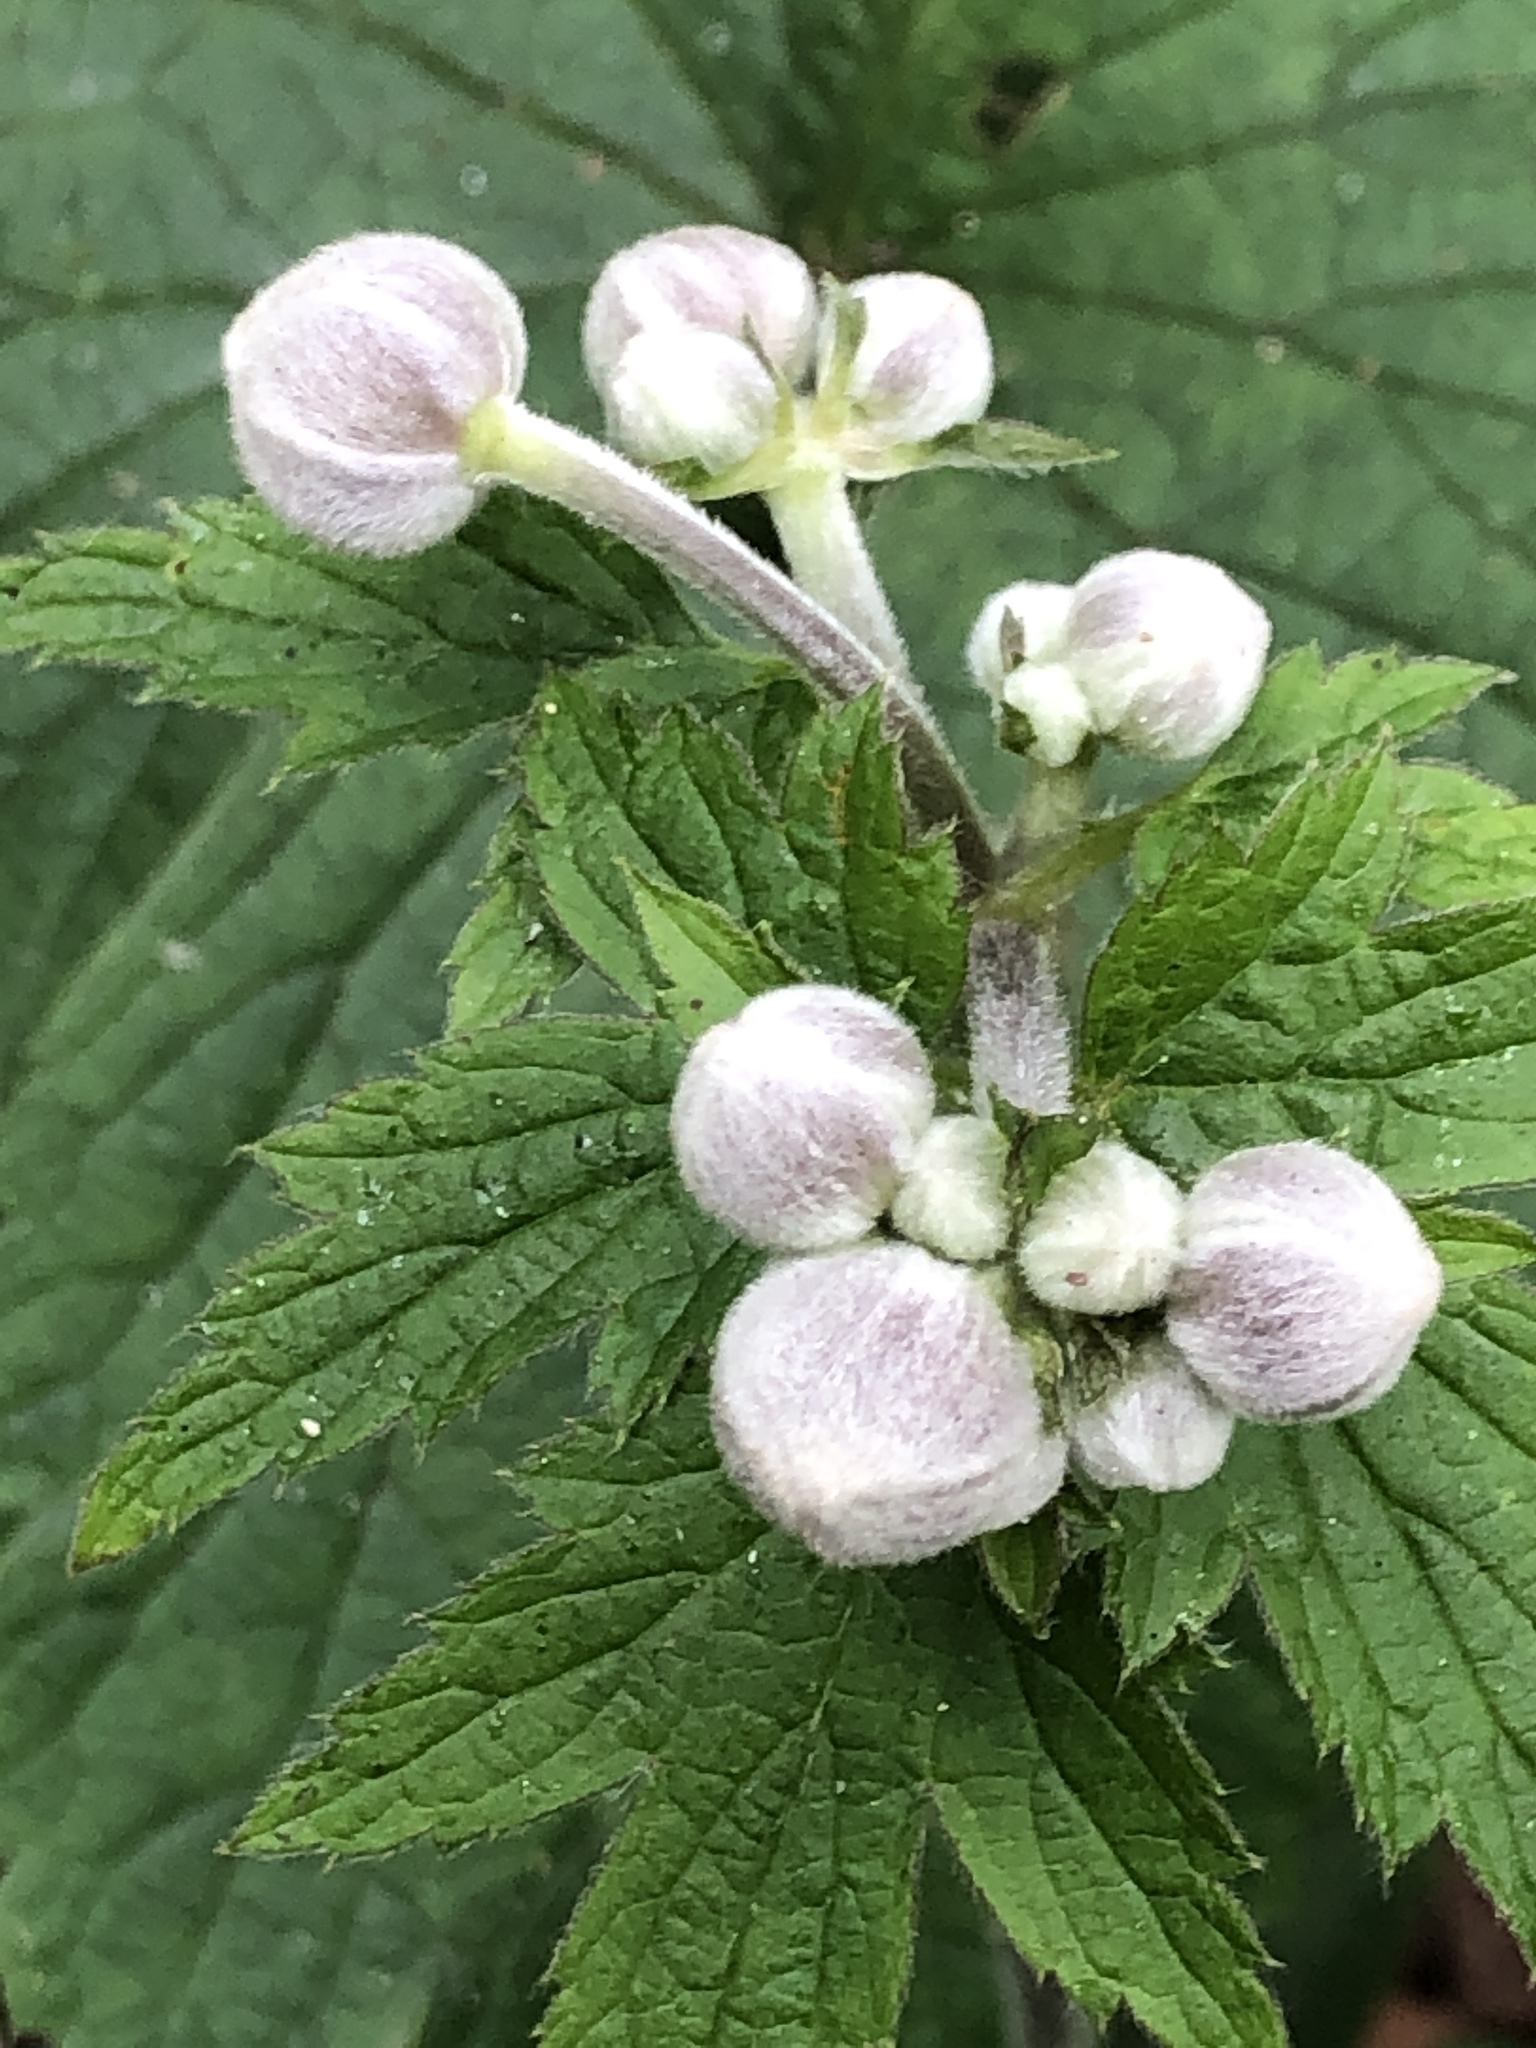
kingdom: Plantae
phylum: Tracheophyta
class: Magnoliopsida
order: Ranunculales
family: Ranunculaceae
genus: Eriocapitella
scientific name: Eriocapitella hybrida
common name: Japanese anemone
